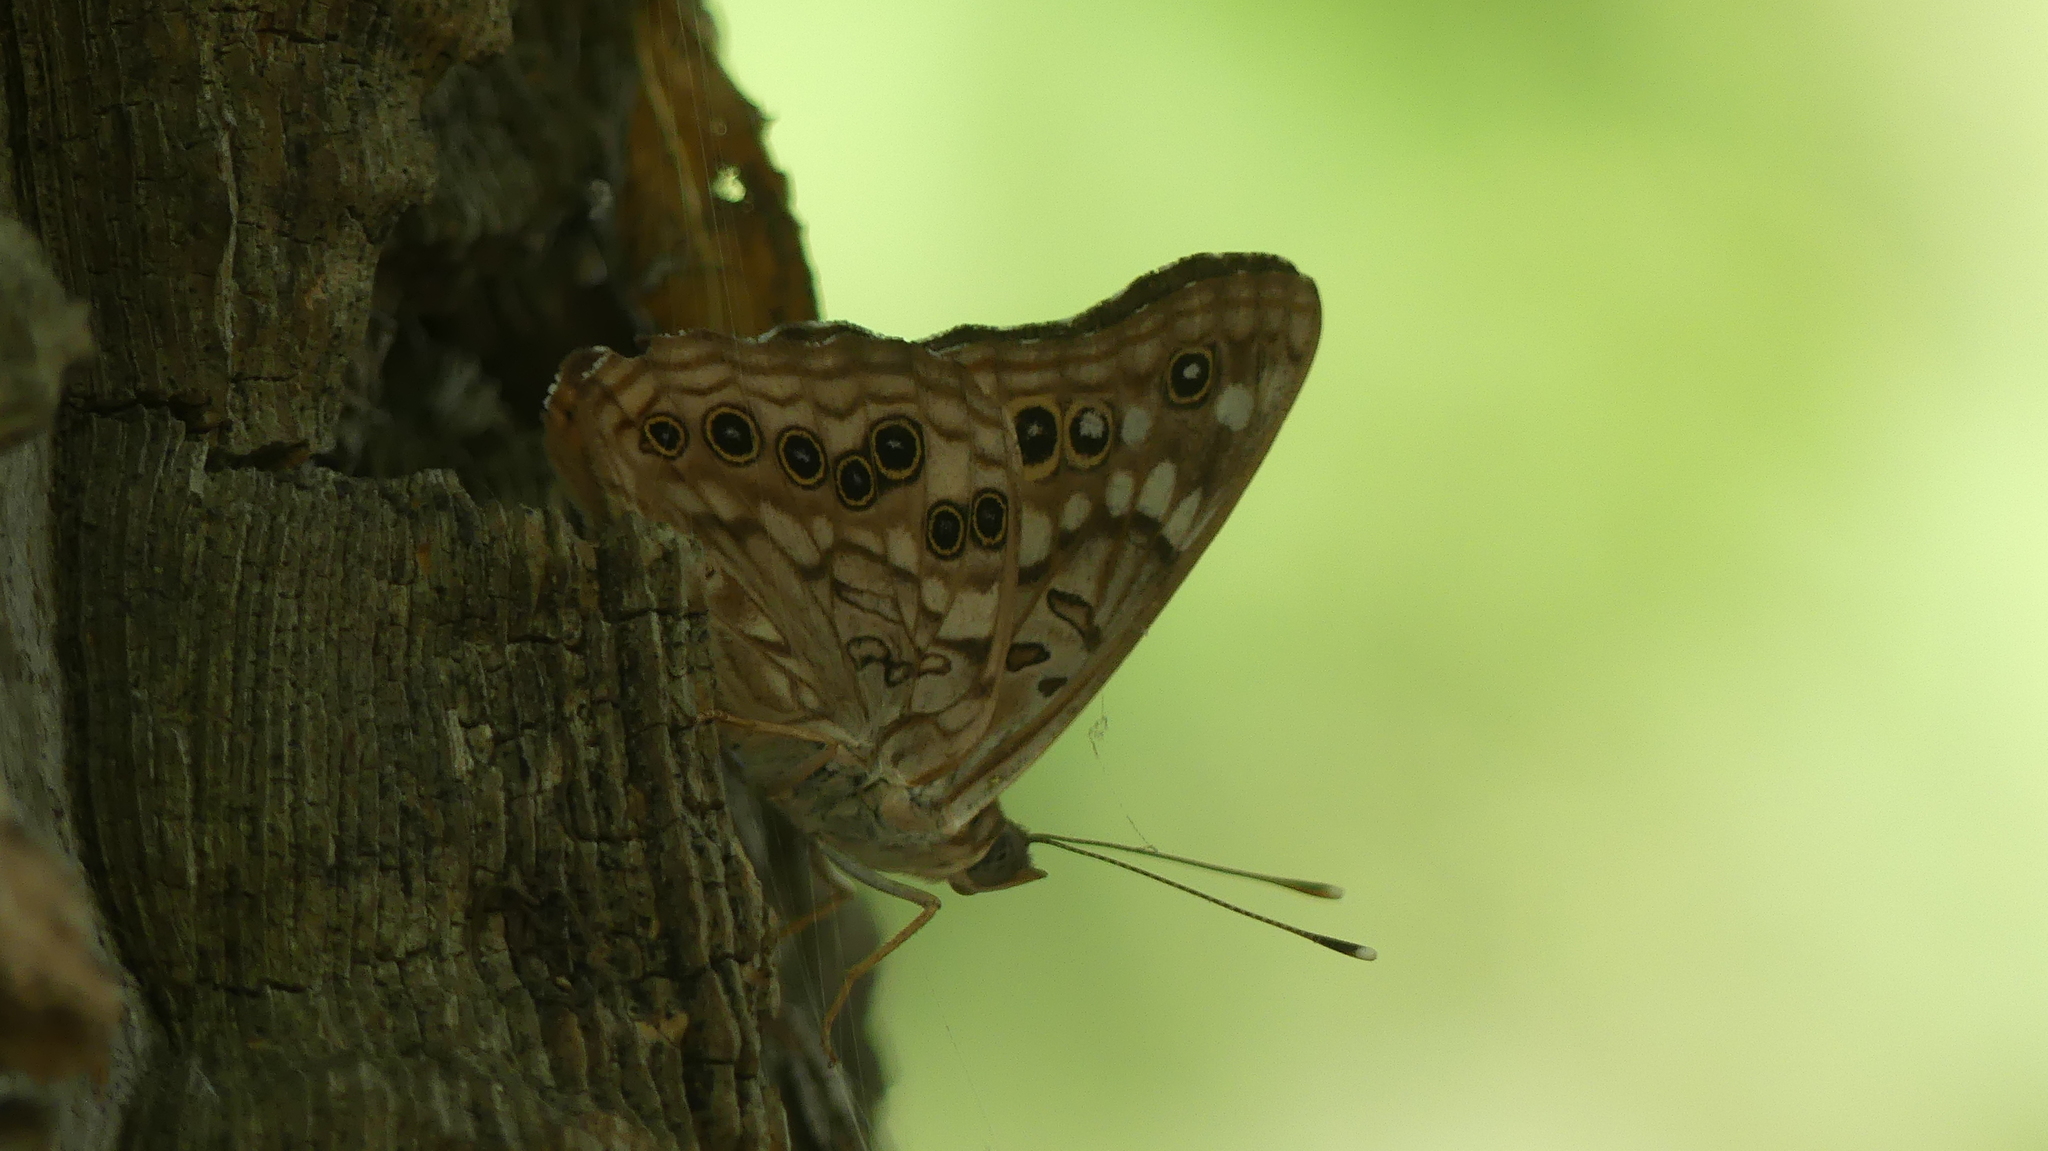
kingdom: Animalia
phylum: Arthropoda
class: Insecta
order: Lepidoptera
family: Nymphalidae
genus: Asterocampa
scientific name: Asterocampa celtis
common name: Hackberry emperor
